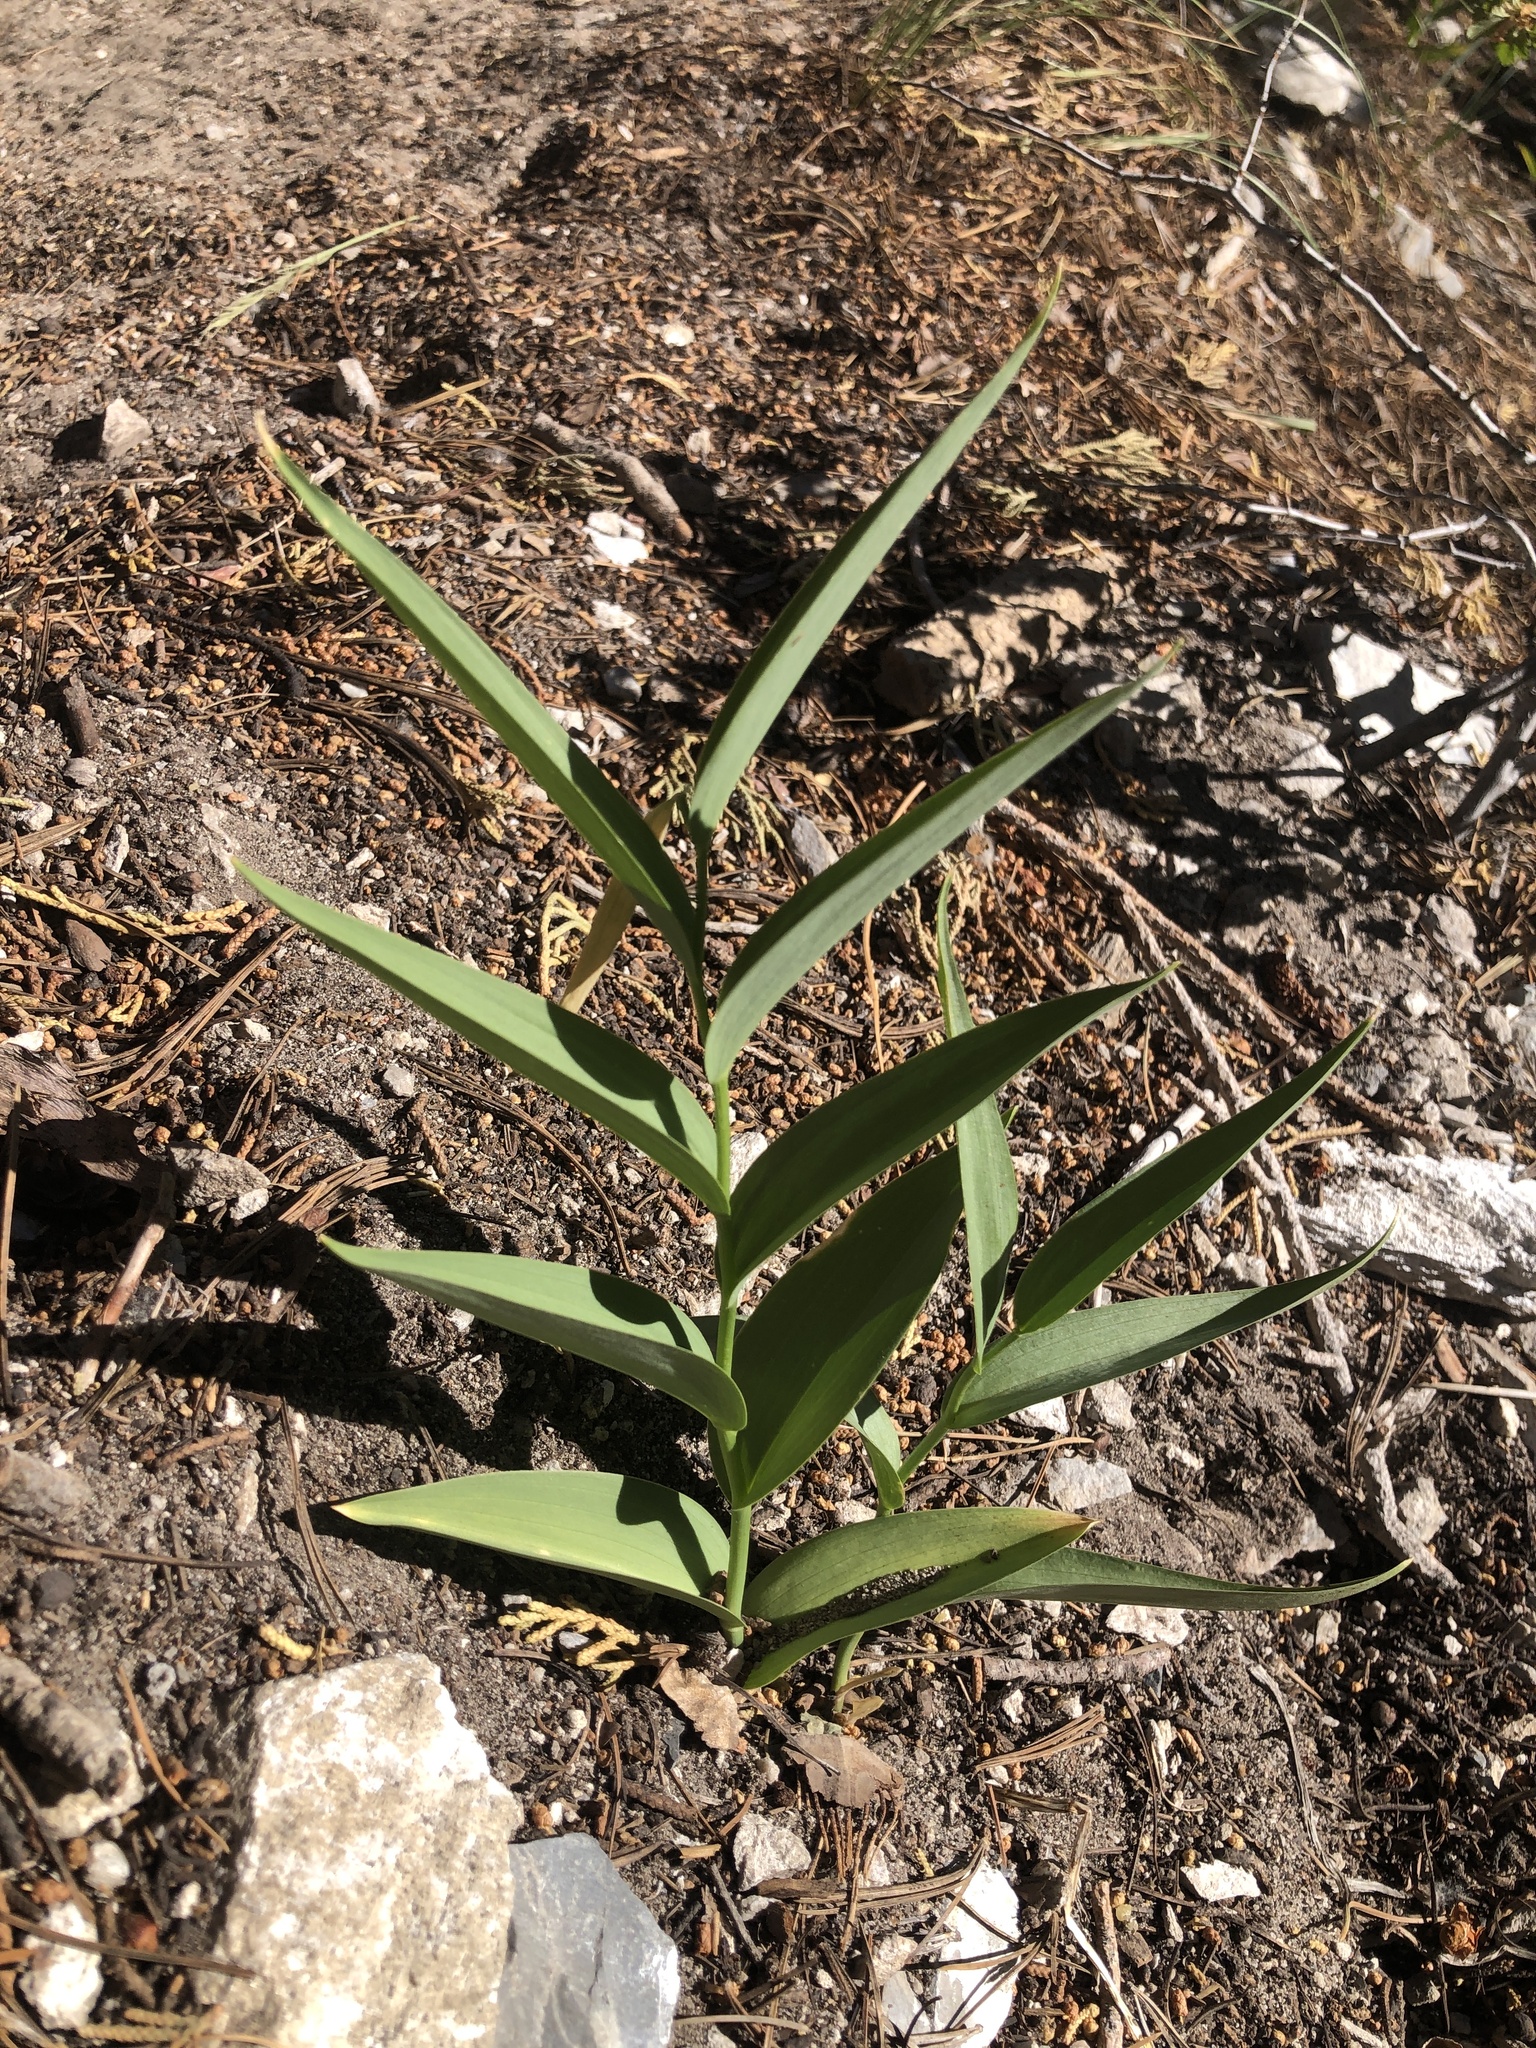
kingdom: Plantae
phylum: Tracheophyta
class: Liliopsida
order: Asparagales
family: Asparagaceae
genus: Maianthemum
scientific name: Maianthemum stellatum
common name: Little false solomon's seal
